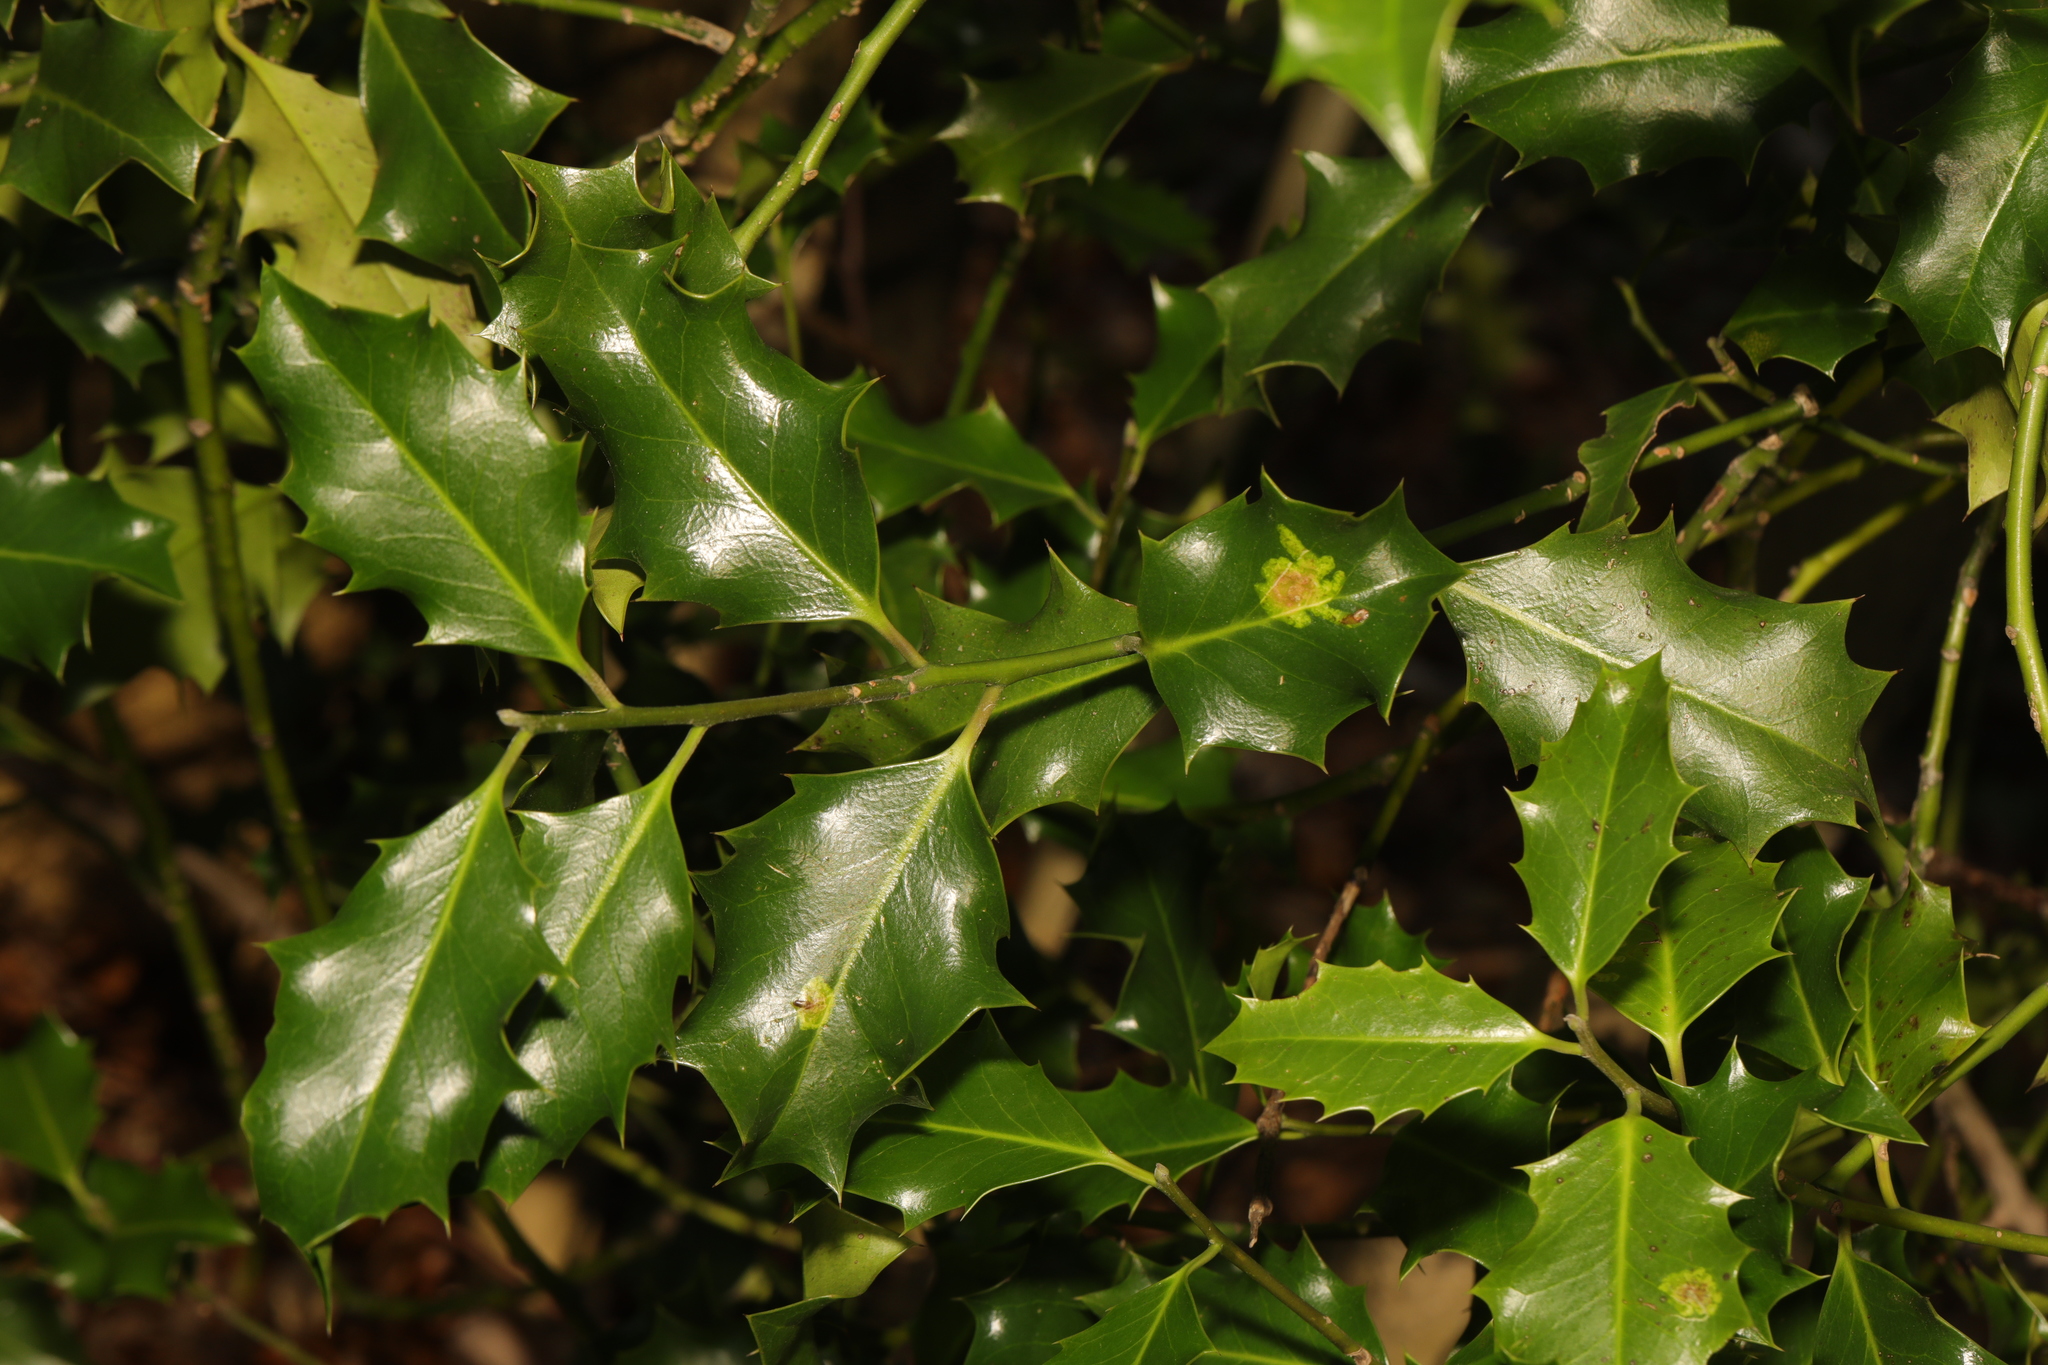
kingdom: Plantae
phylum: Tracheophyta
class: Magnoliopsida
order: Aquifoliales
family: Aquifoliaceae
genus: Ilex
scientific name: Ilex aquifolium
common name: English holly
